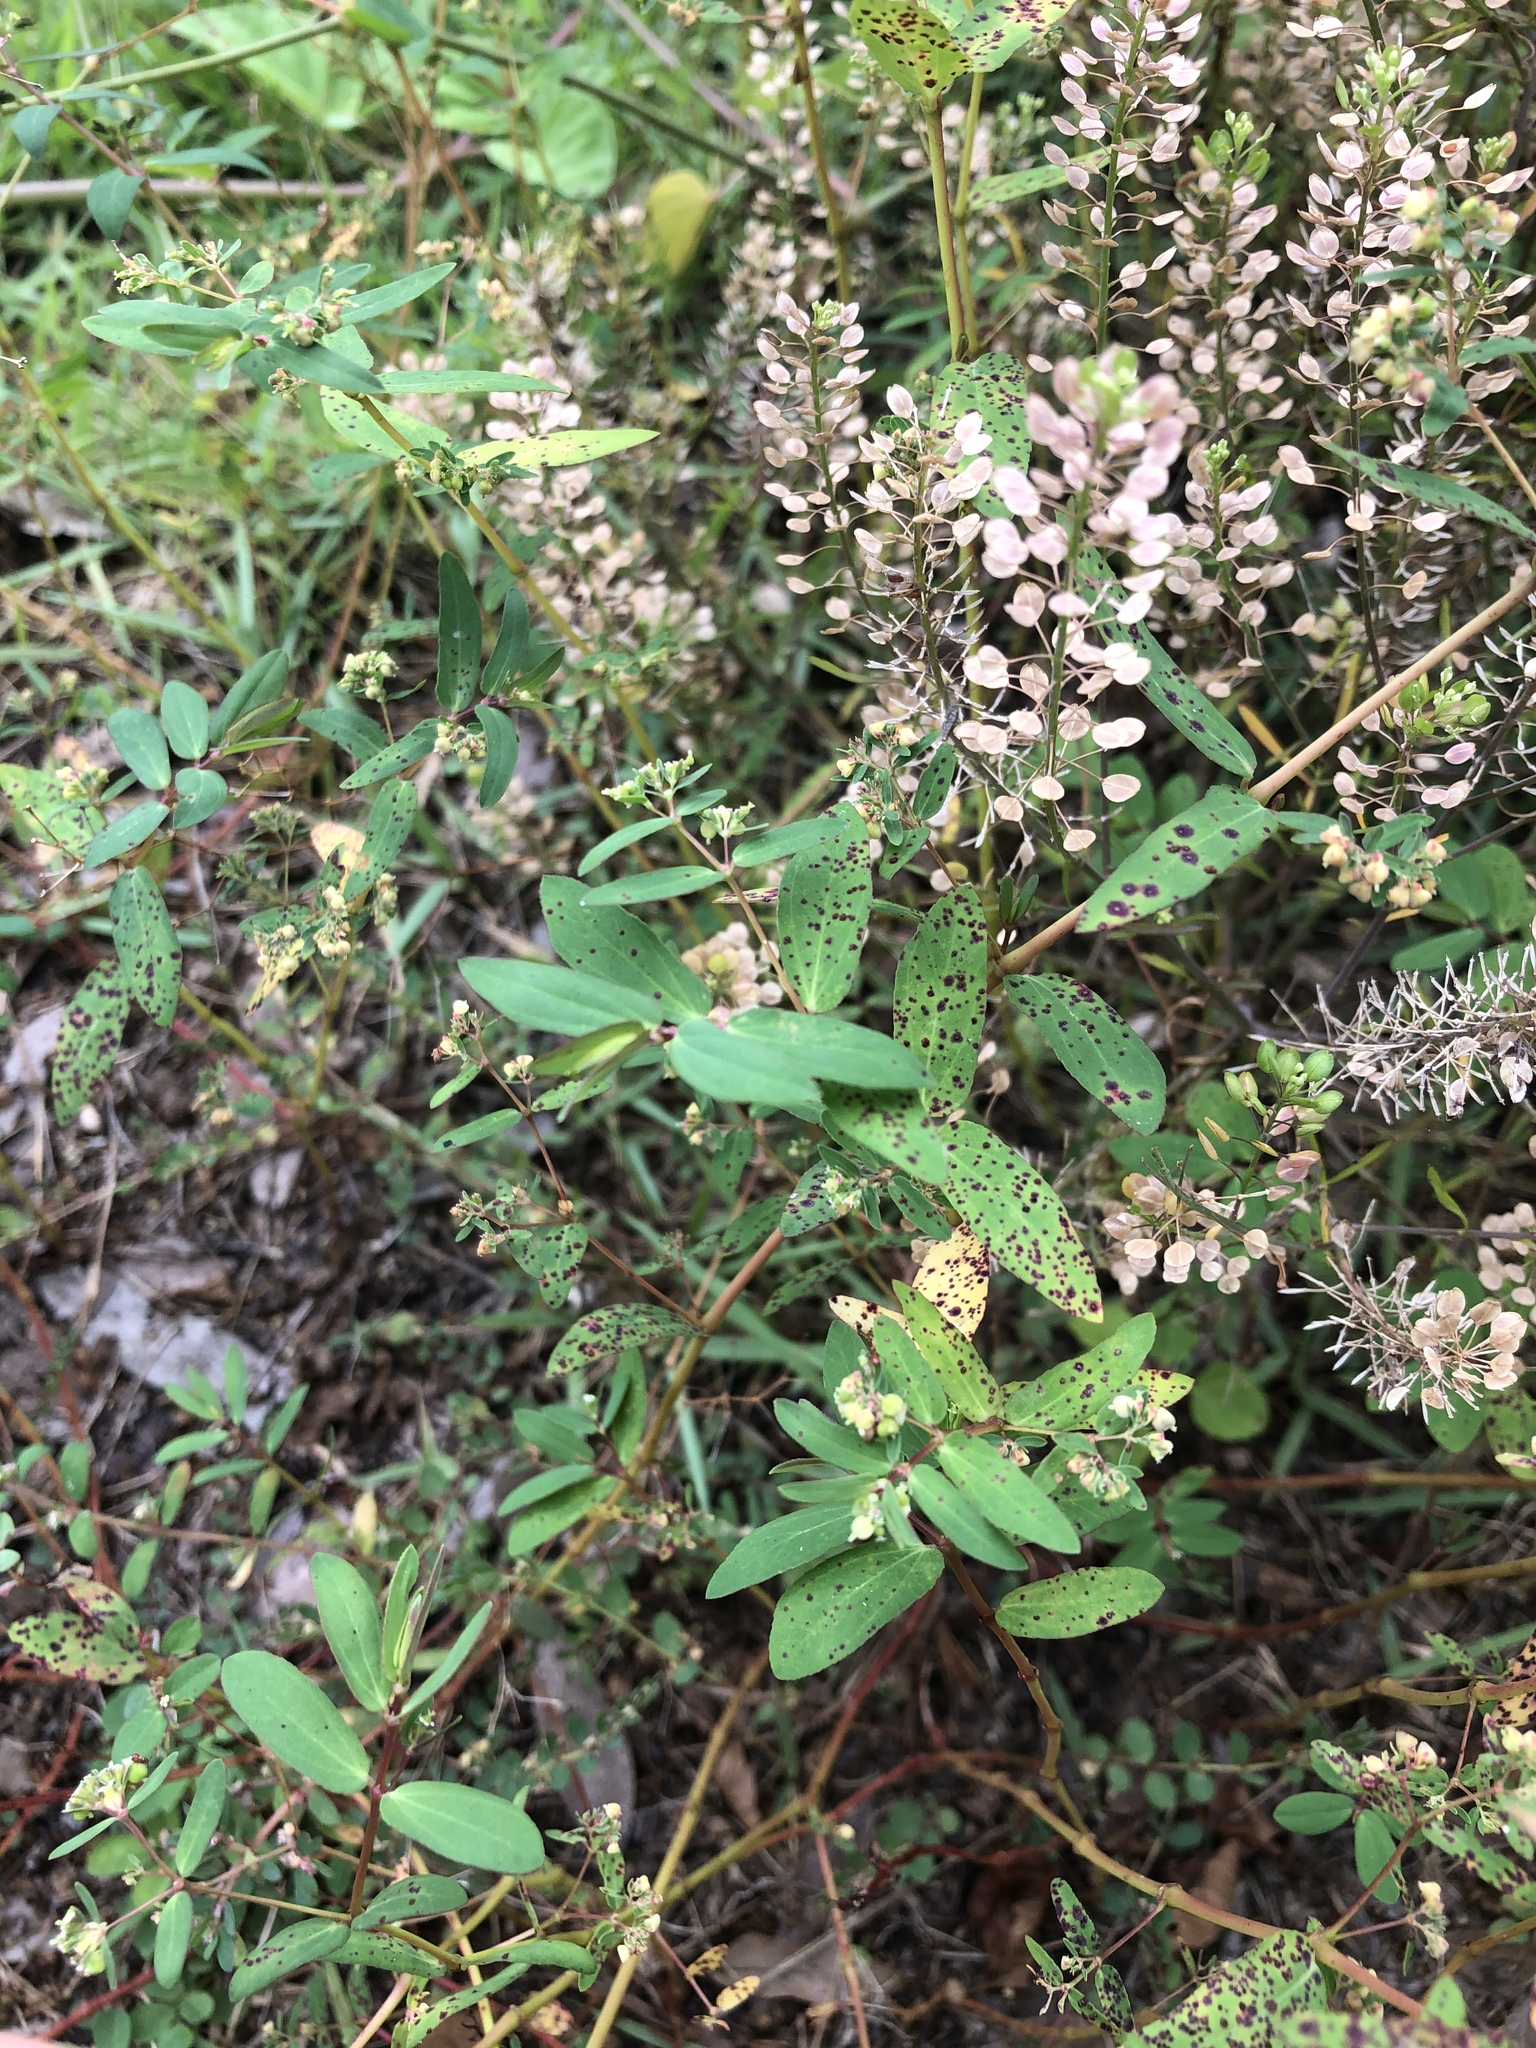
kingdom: Plantae
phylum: Tracheophyta
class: Magnoliopsida
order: Brassicales
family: Brassicaceae
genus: Lepidium
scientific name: Lepidium virginicum
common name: Least pepperwort
